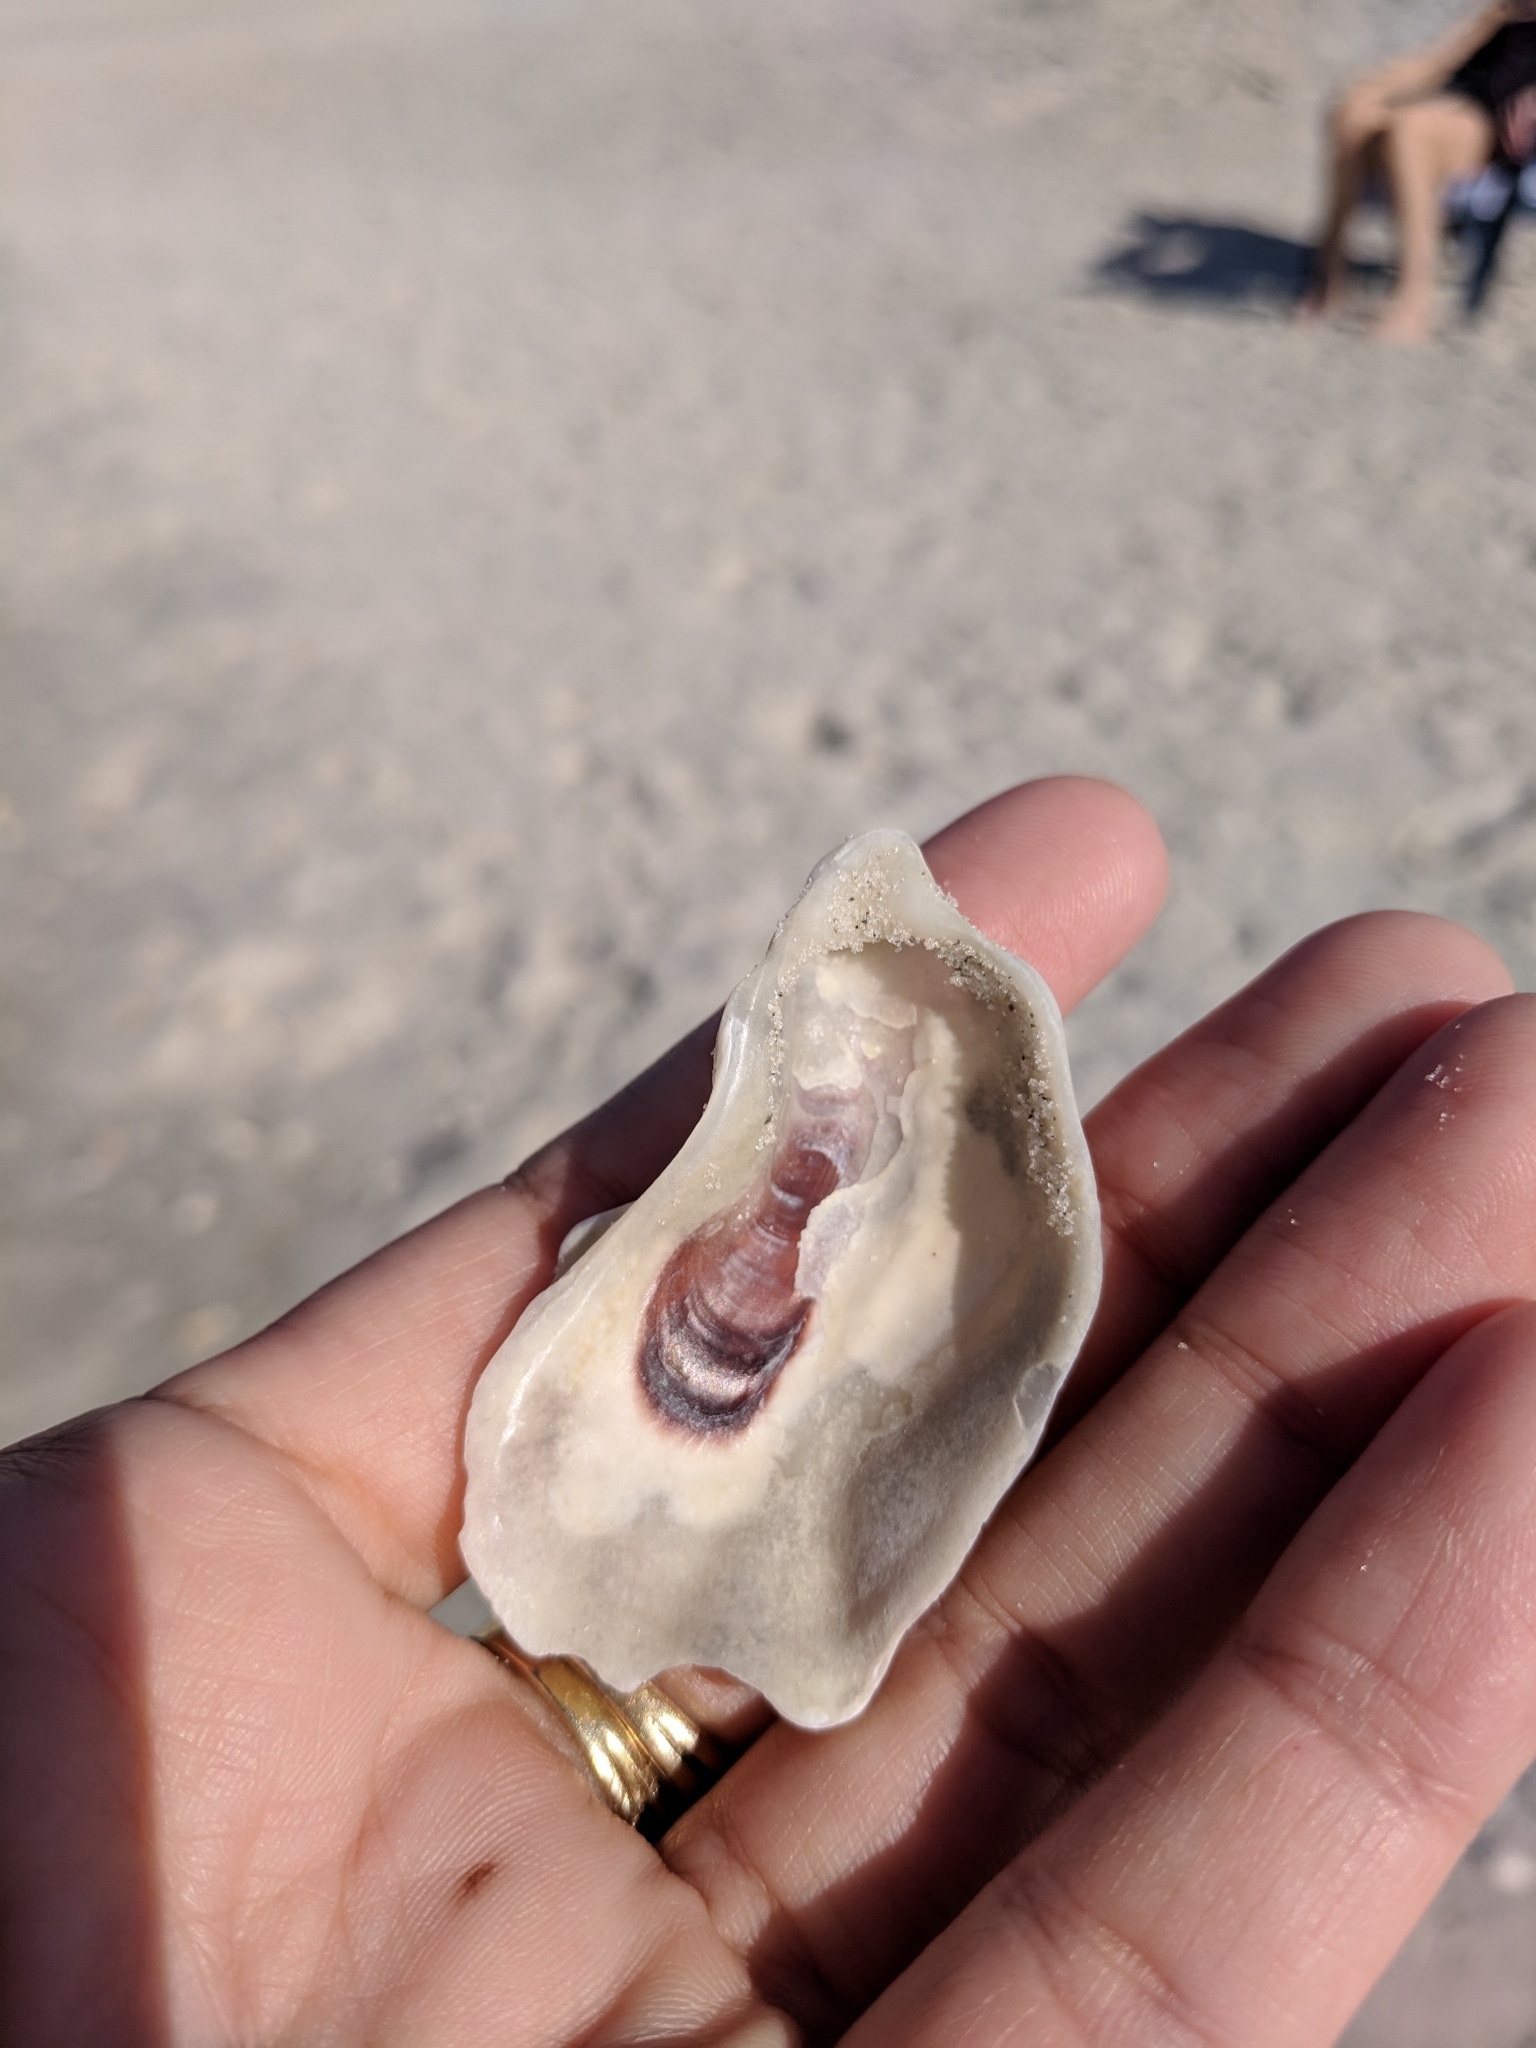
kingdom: Animalia
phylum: Mollusca
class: Bivalvia
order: Ostreida
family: Ostreidae
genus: Crassostrea
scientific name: Crassostrea virginica
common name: American oyster
